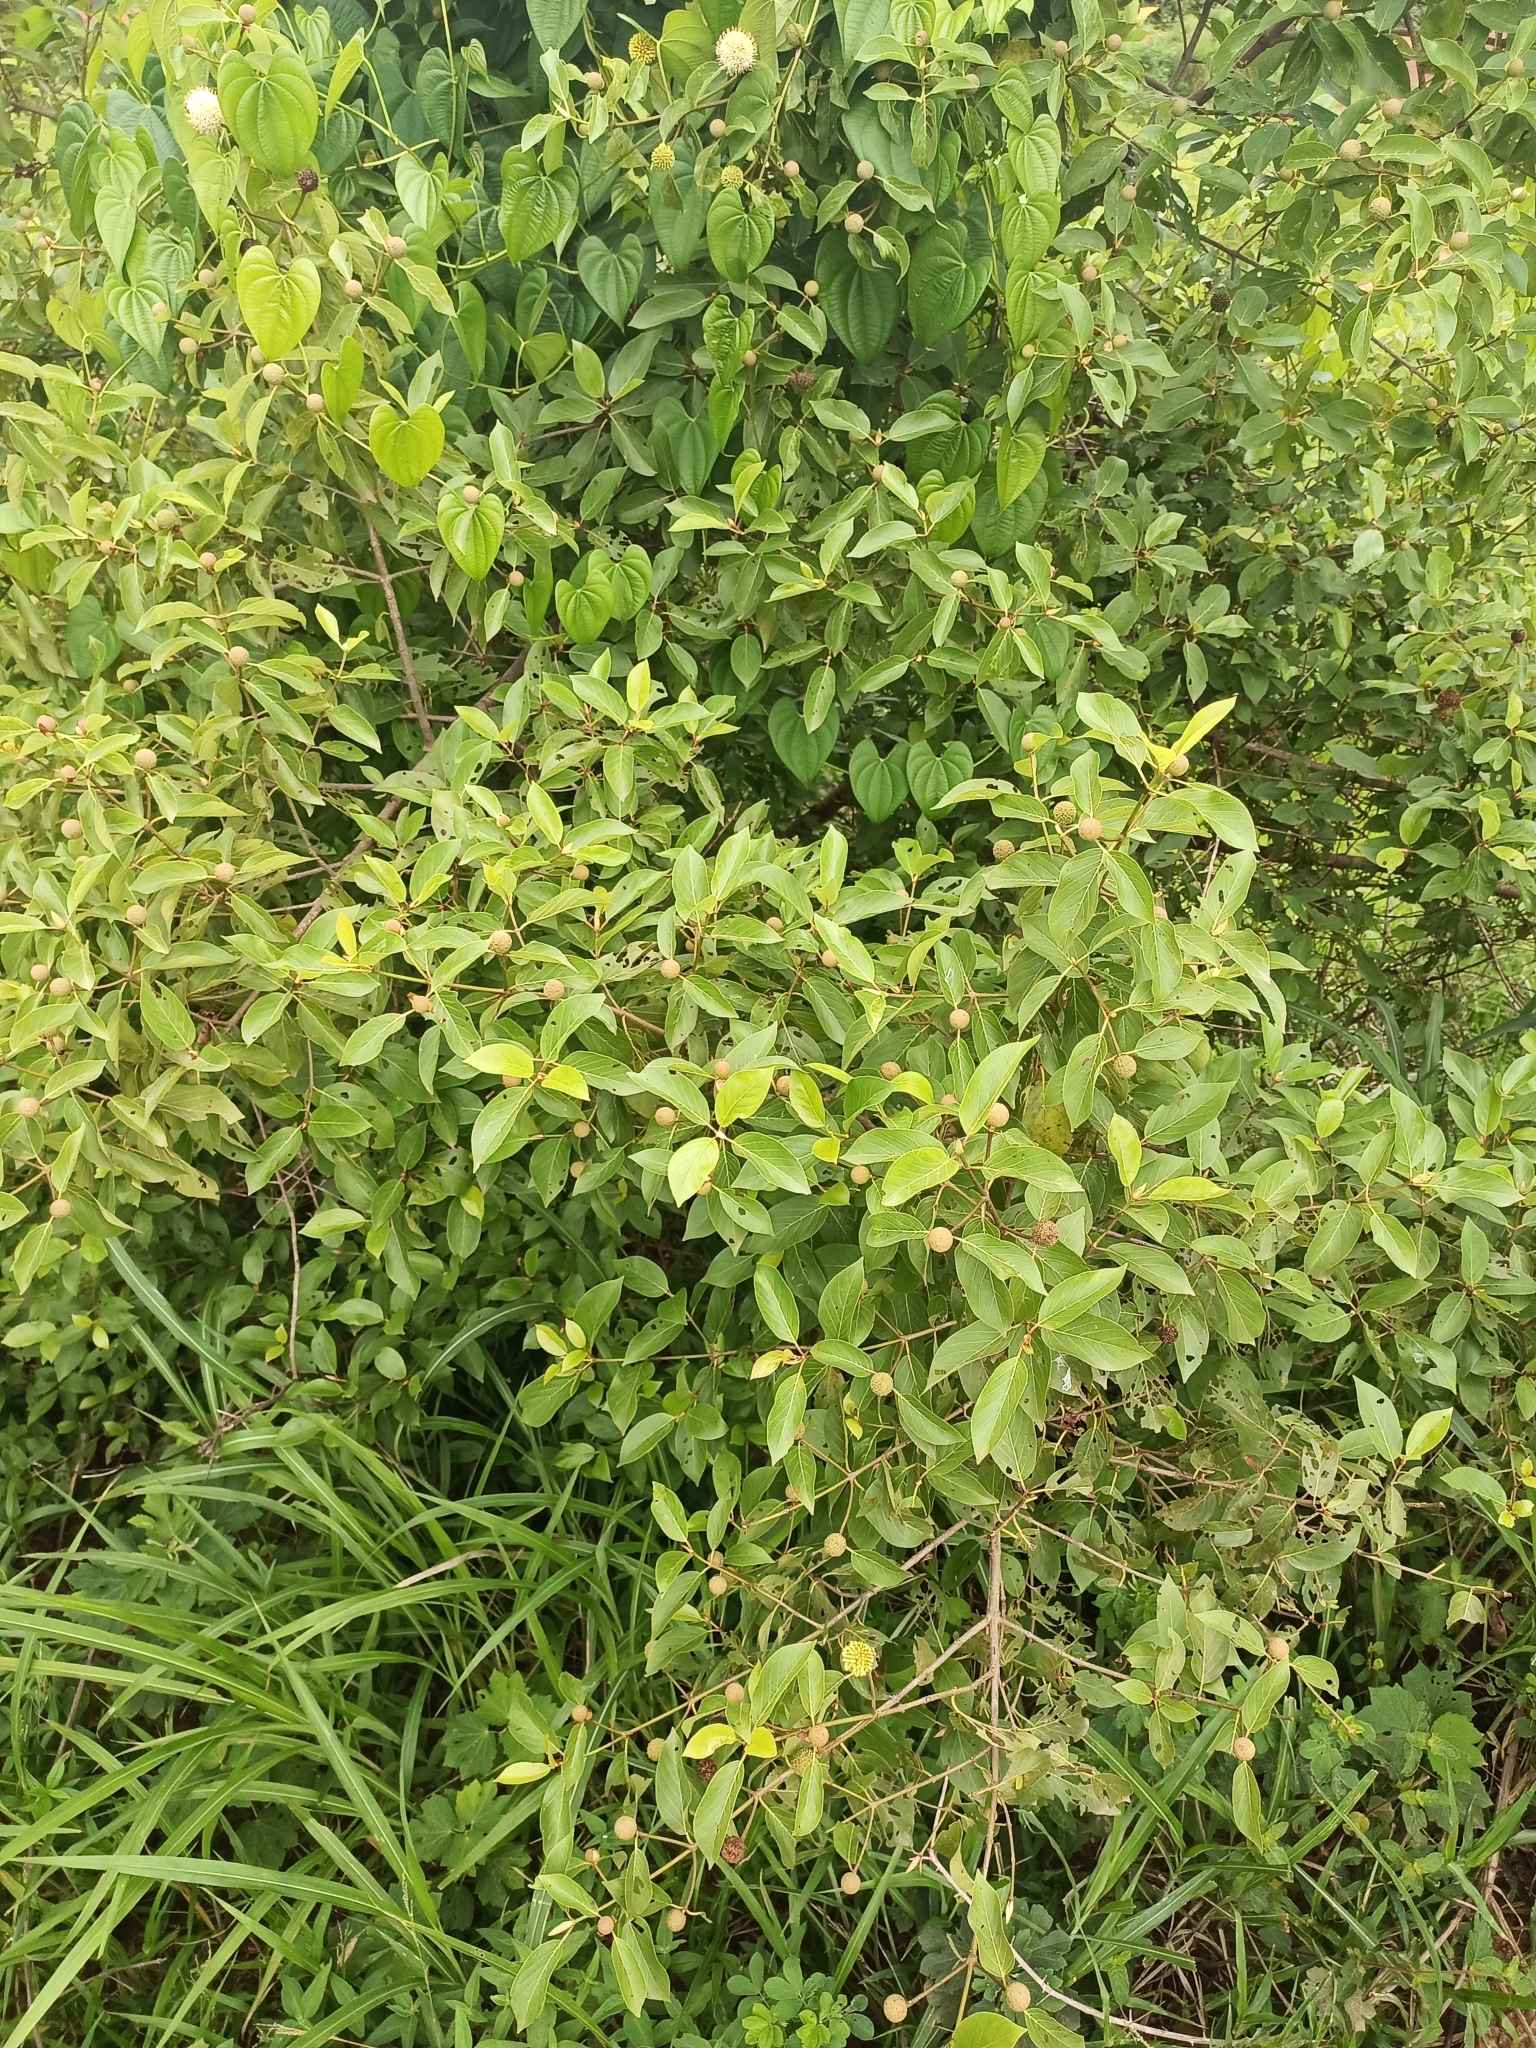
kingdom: Plantae
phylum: Tracheophyta
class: Magnoliopsida
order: Gentianales
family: Rubiaceae
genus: Mitragyna
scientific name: Mitragyna inermis
